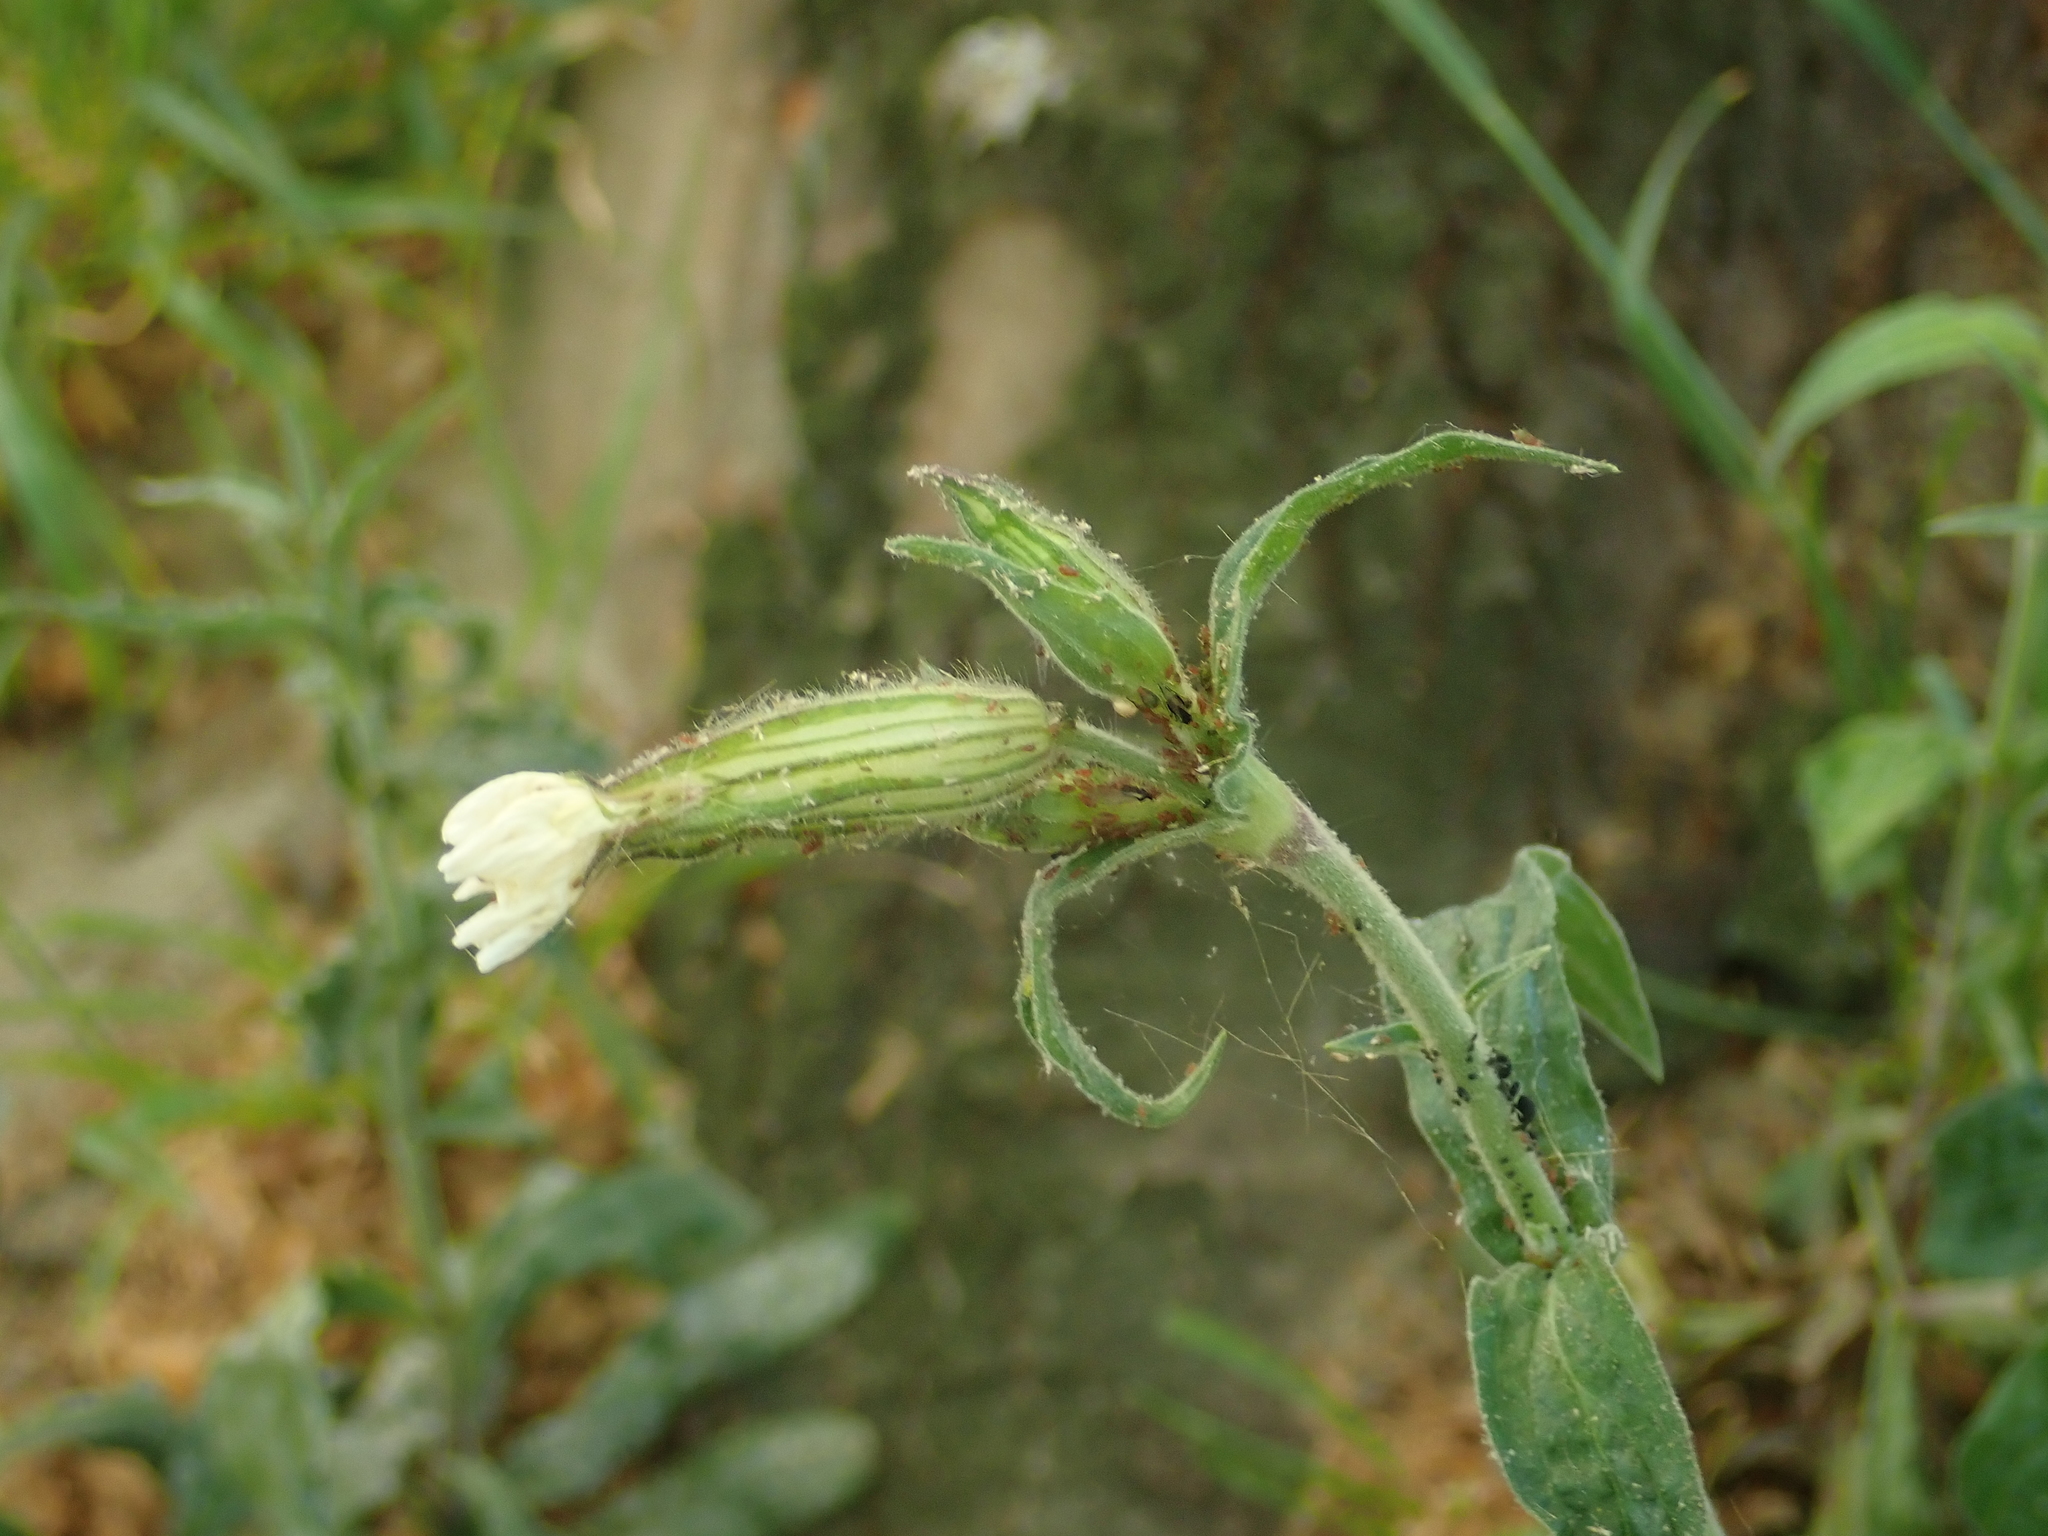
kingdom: Plantae
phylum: Tracheophyta
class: Magnoliopsida
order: Caryophyllales
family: Caryophyllaceae
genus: Silene
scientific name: Silene latifolia
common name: White campion
